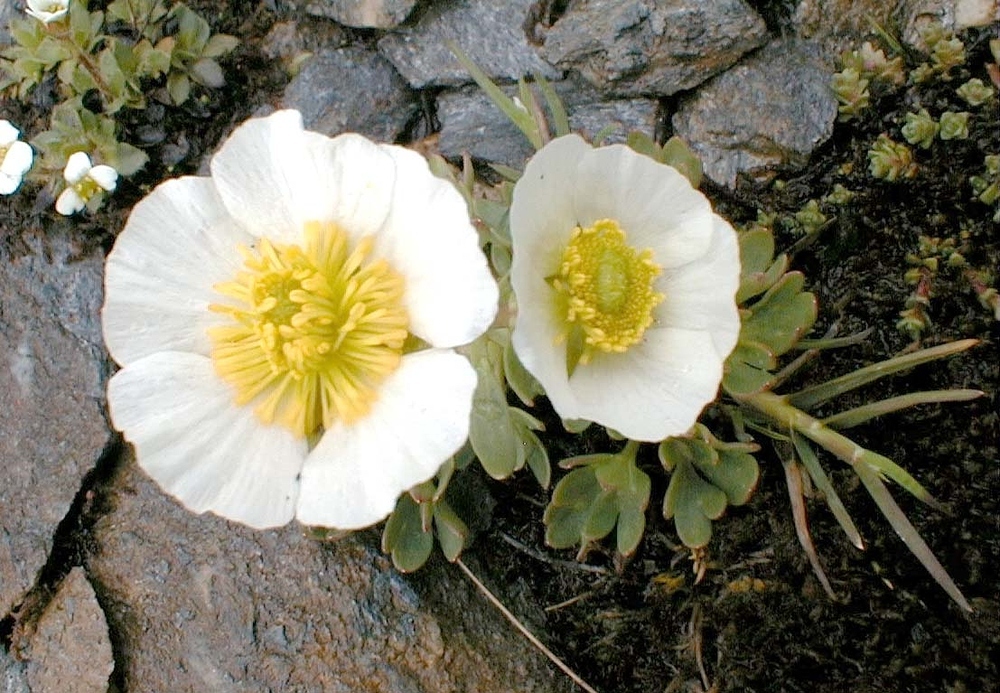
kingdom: Plantae
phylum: Tracheophyta
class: Magnoliopsida
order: Ranunculales
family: Ranunculaceae
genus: Ranunculus
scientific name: Ranunculus glacialis
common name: Glacier buttercup
